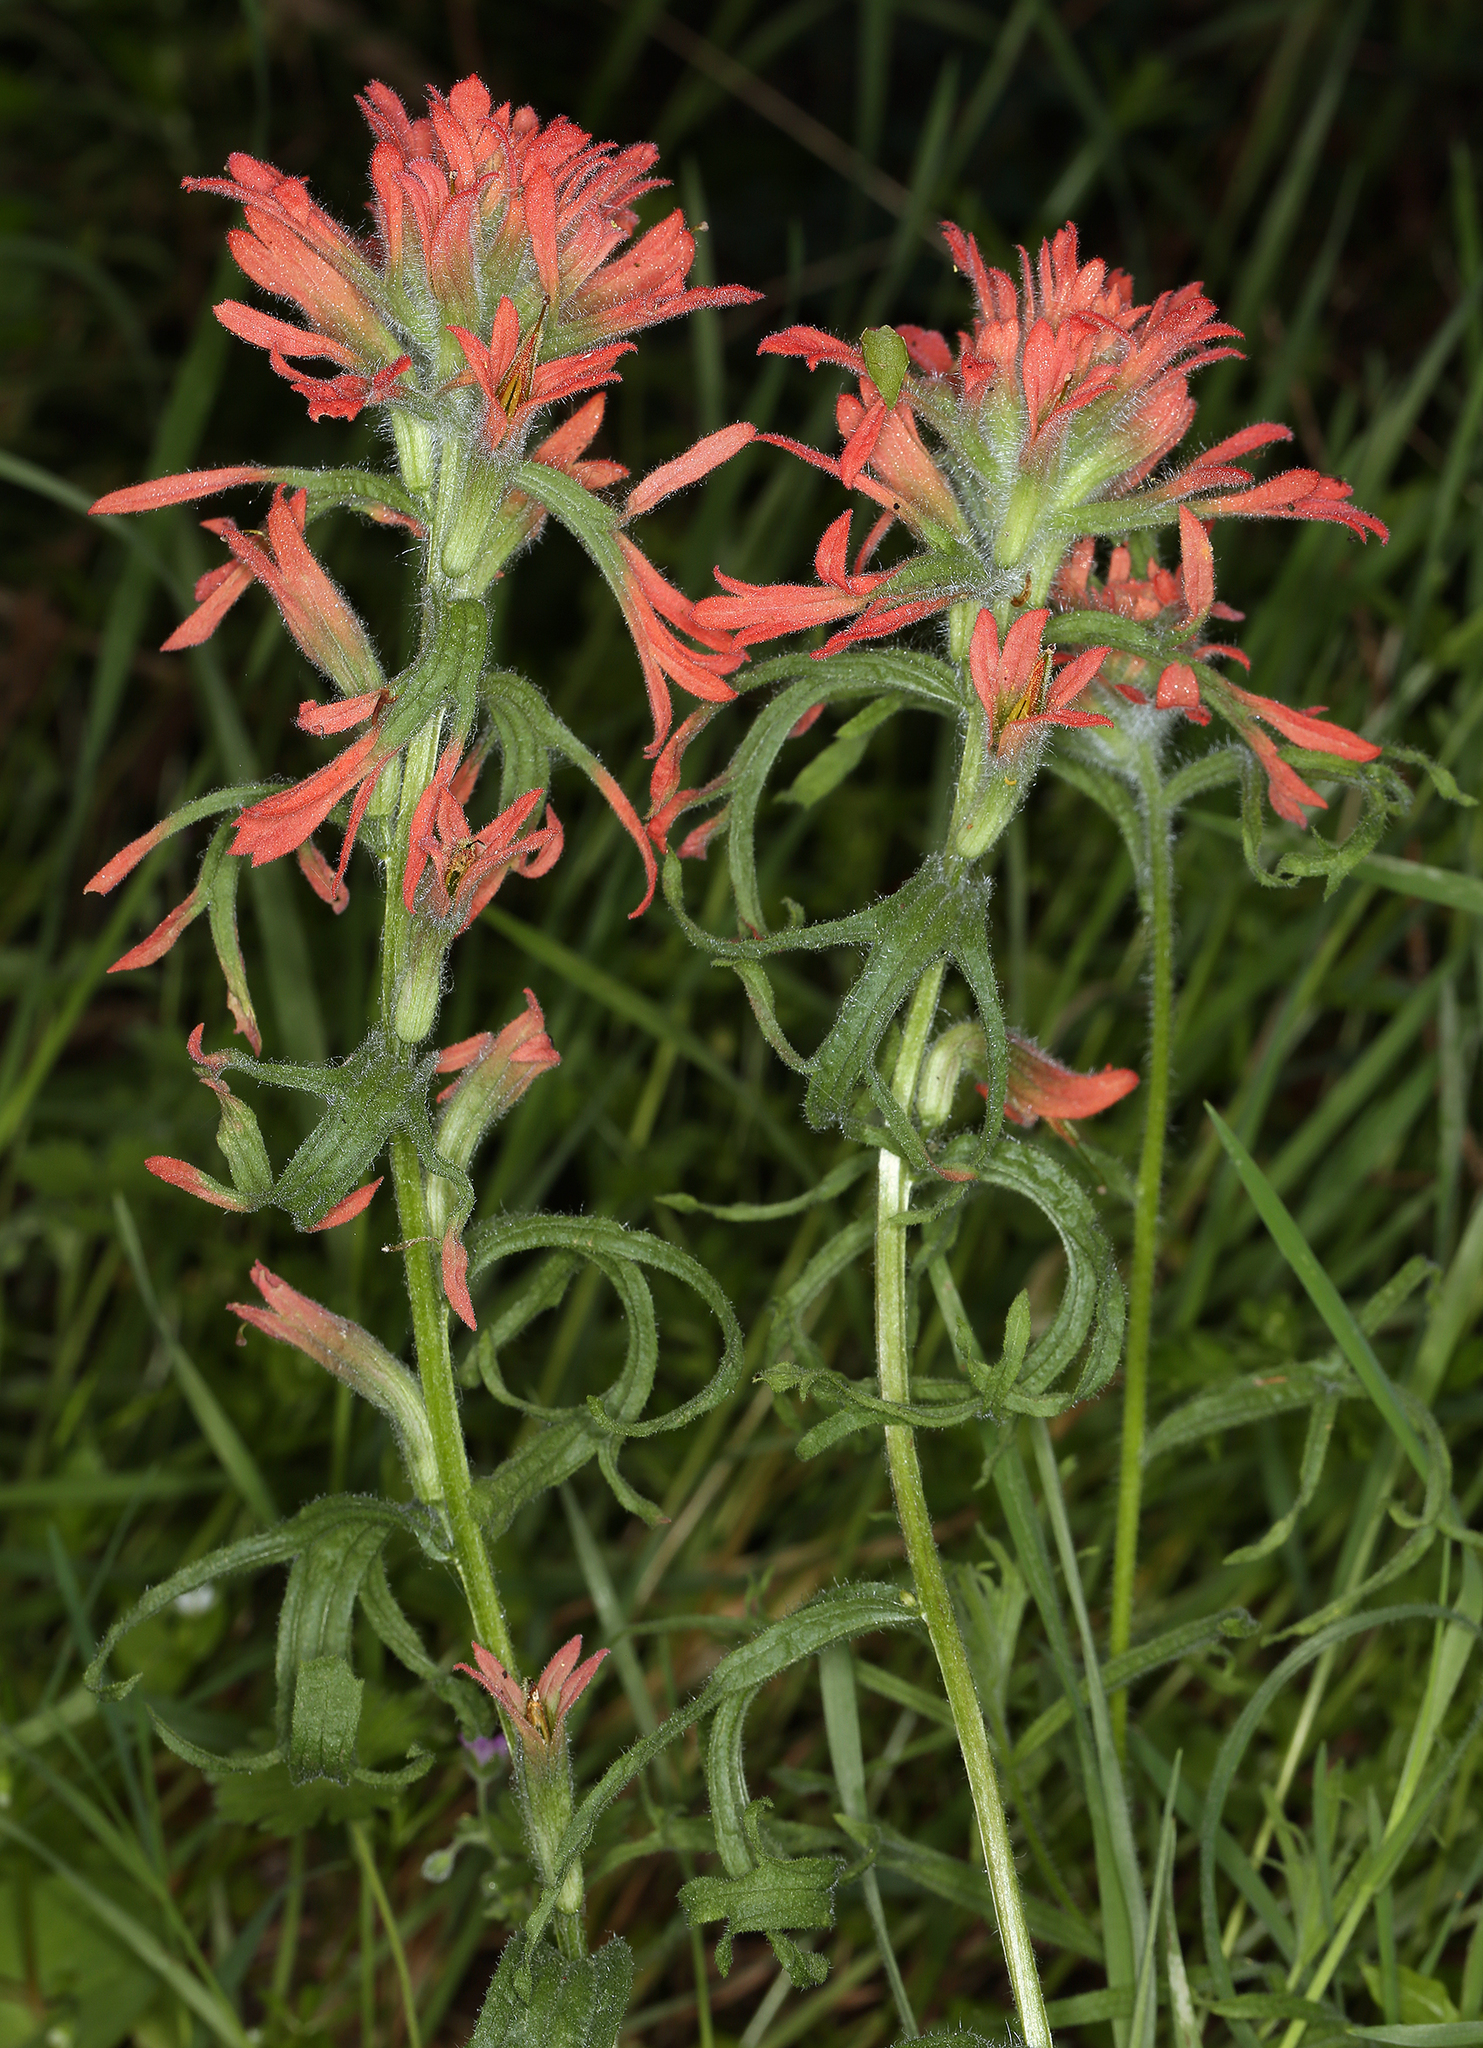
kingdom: Plantae
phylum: Tracheophyta
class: Magnoliopsida
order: Lamiales
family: Orobanchaceae
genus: Castilleja
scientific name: Castilleja affinis
